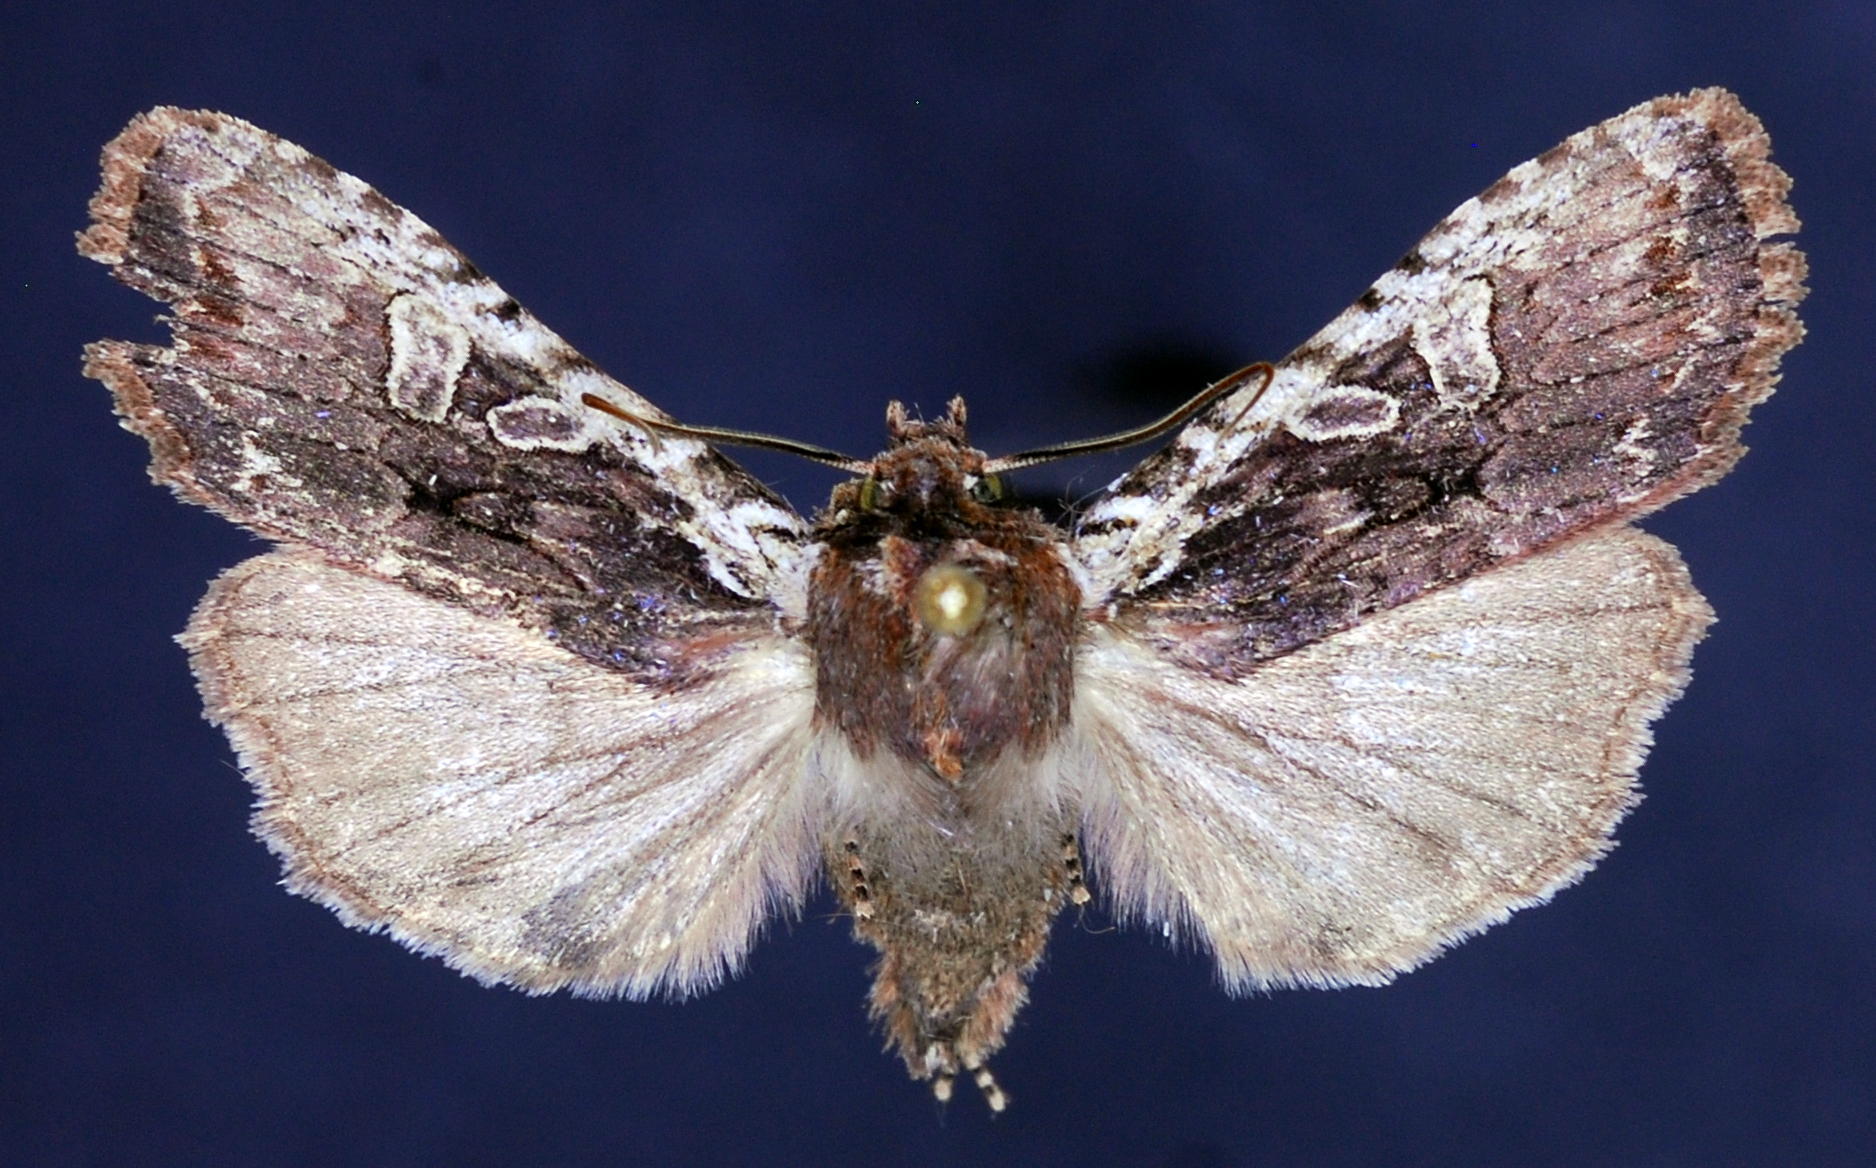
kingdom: Animalia
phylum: Arthropoda
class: Insecta
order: Lepidoptera
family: Noctuidae
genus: Lithophane
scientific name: Lithophane oriunda
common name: Immigrant pinion moth
